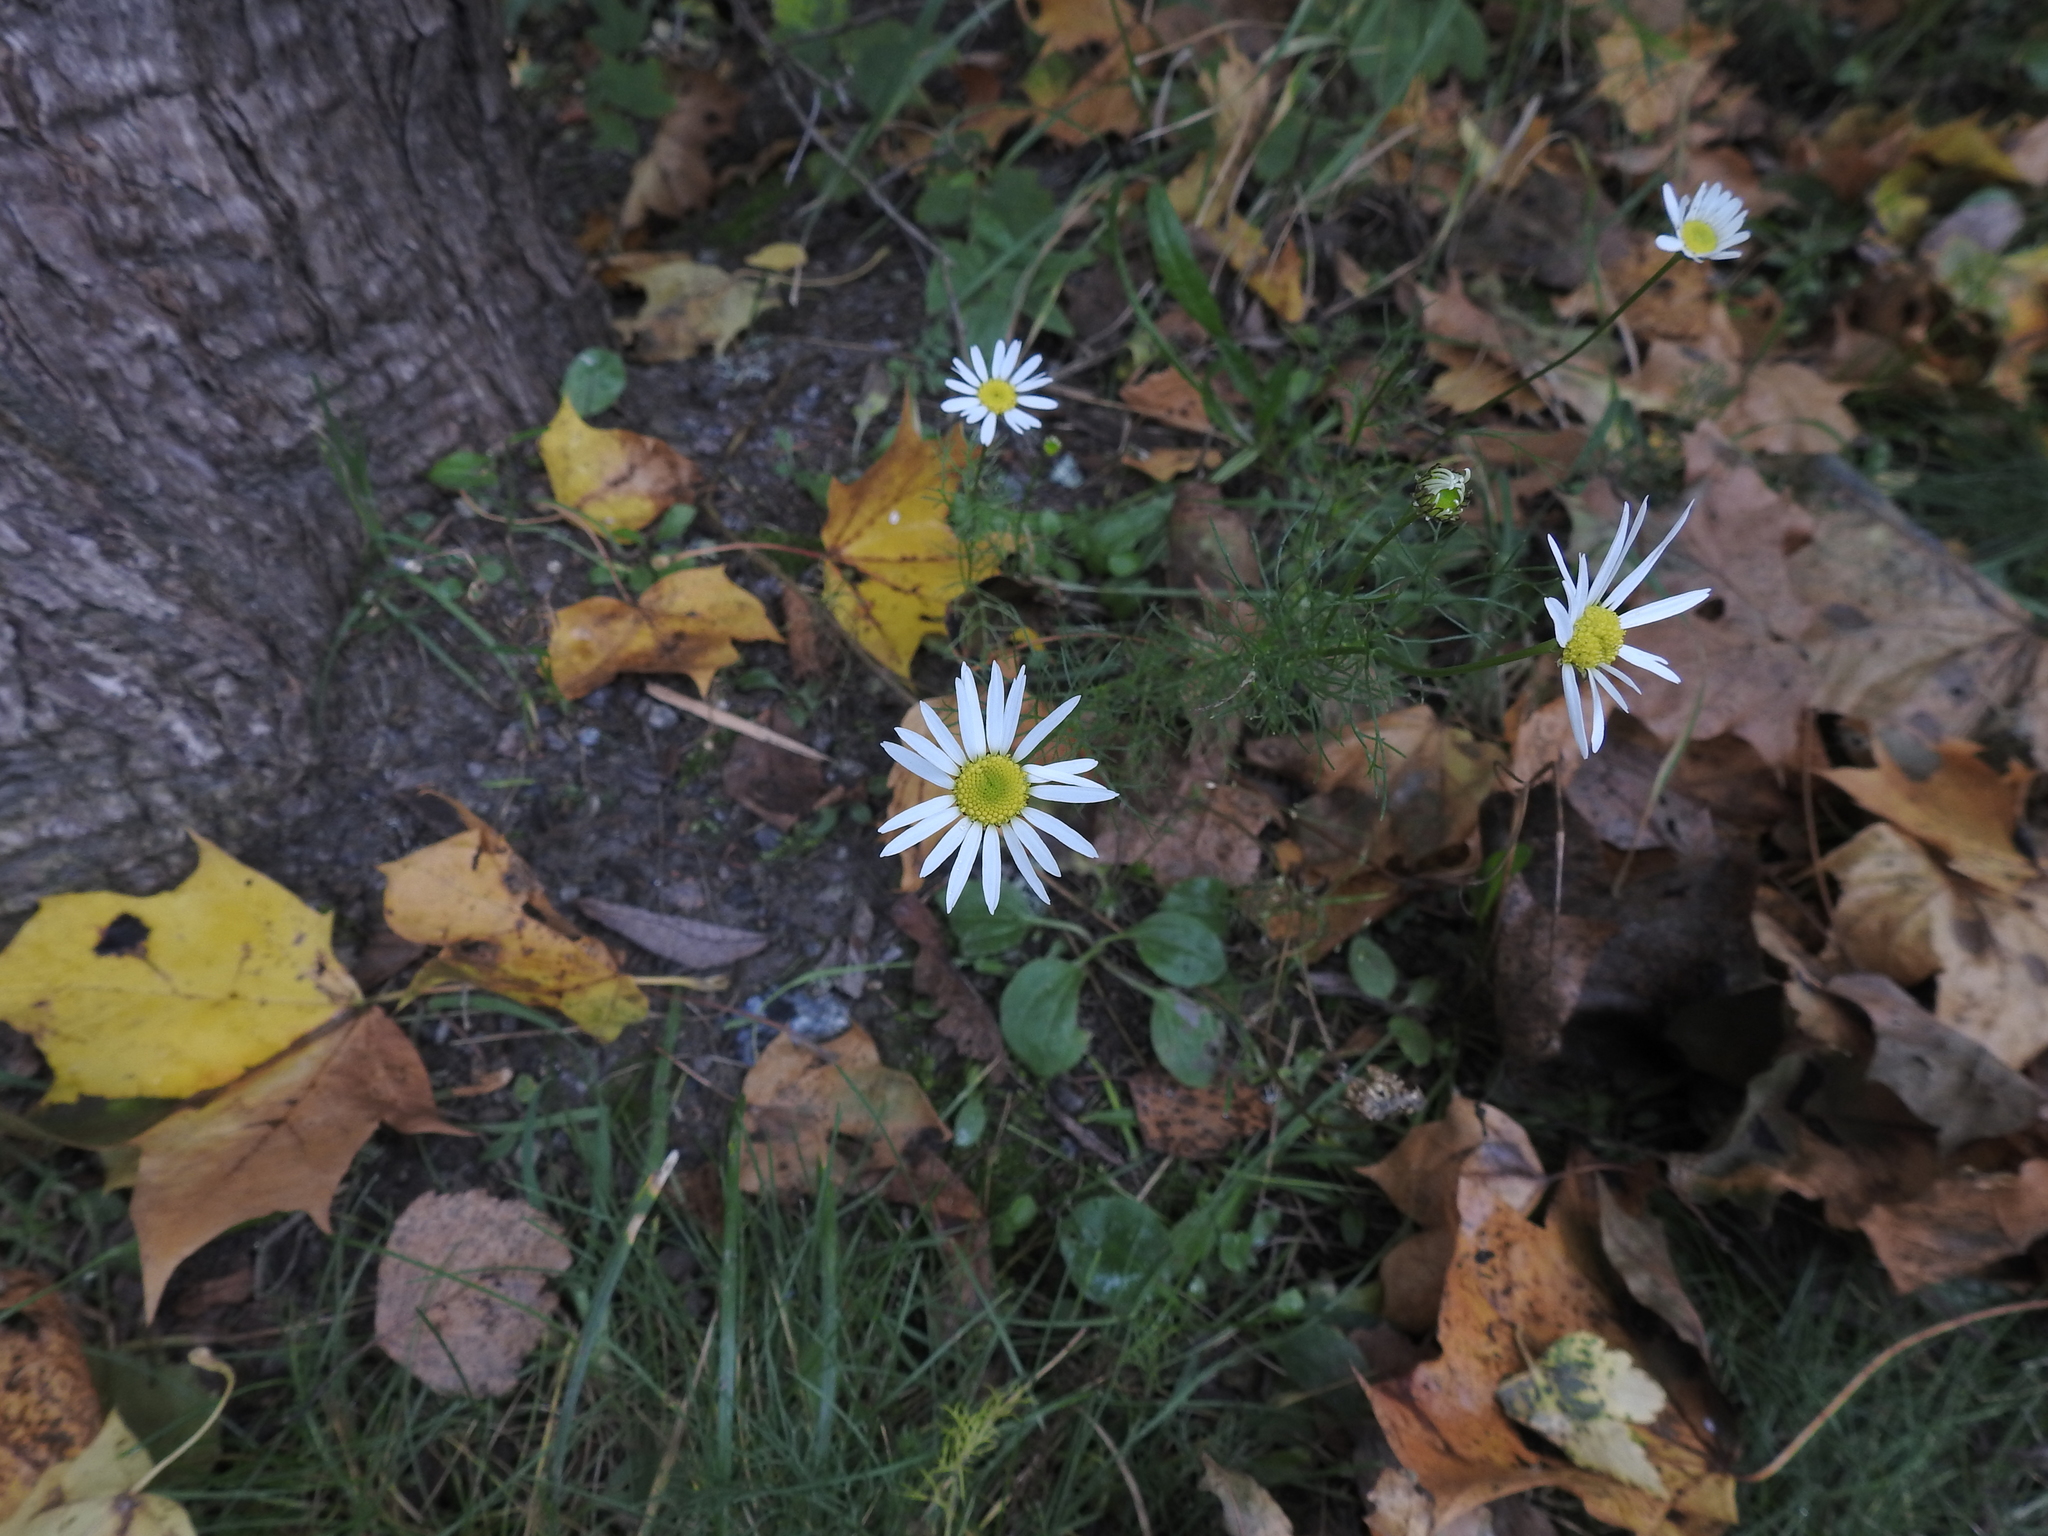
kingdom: Plantae
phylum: Tracheophyta
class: Magnoliopsida
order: Asterales
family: Asteraceae
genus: Tripleurospermum
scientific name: Tripleurospermum inodorum
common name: Scentless mayweed
